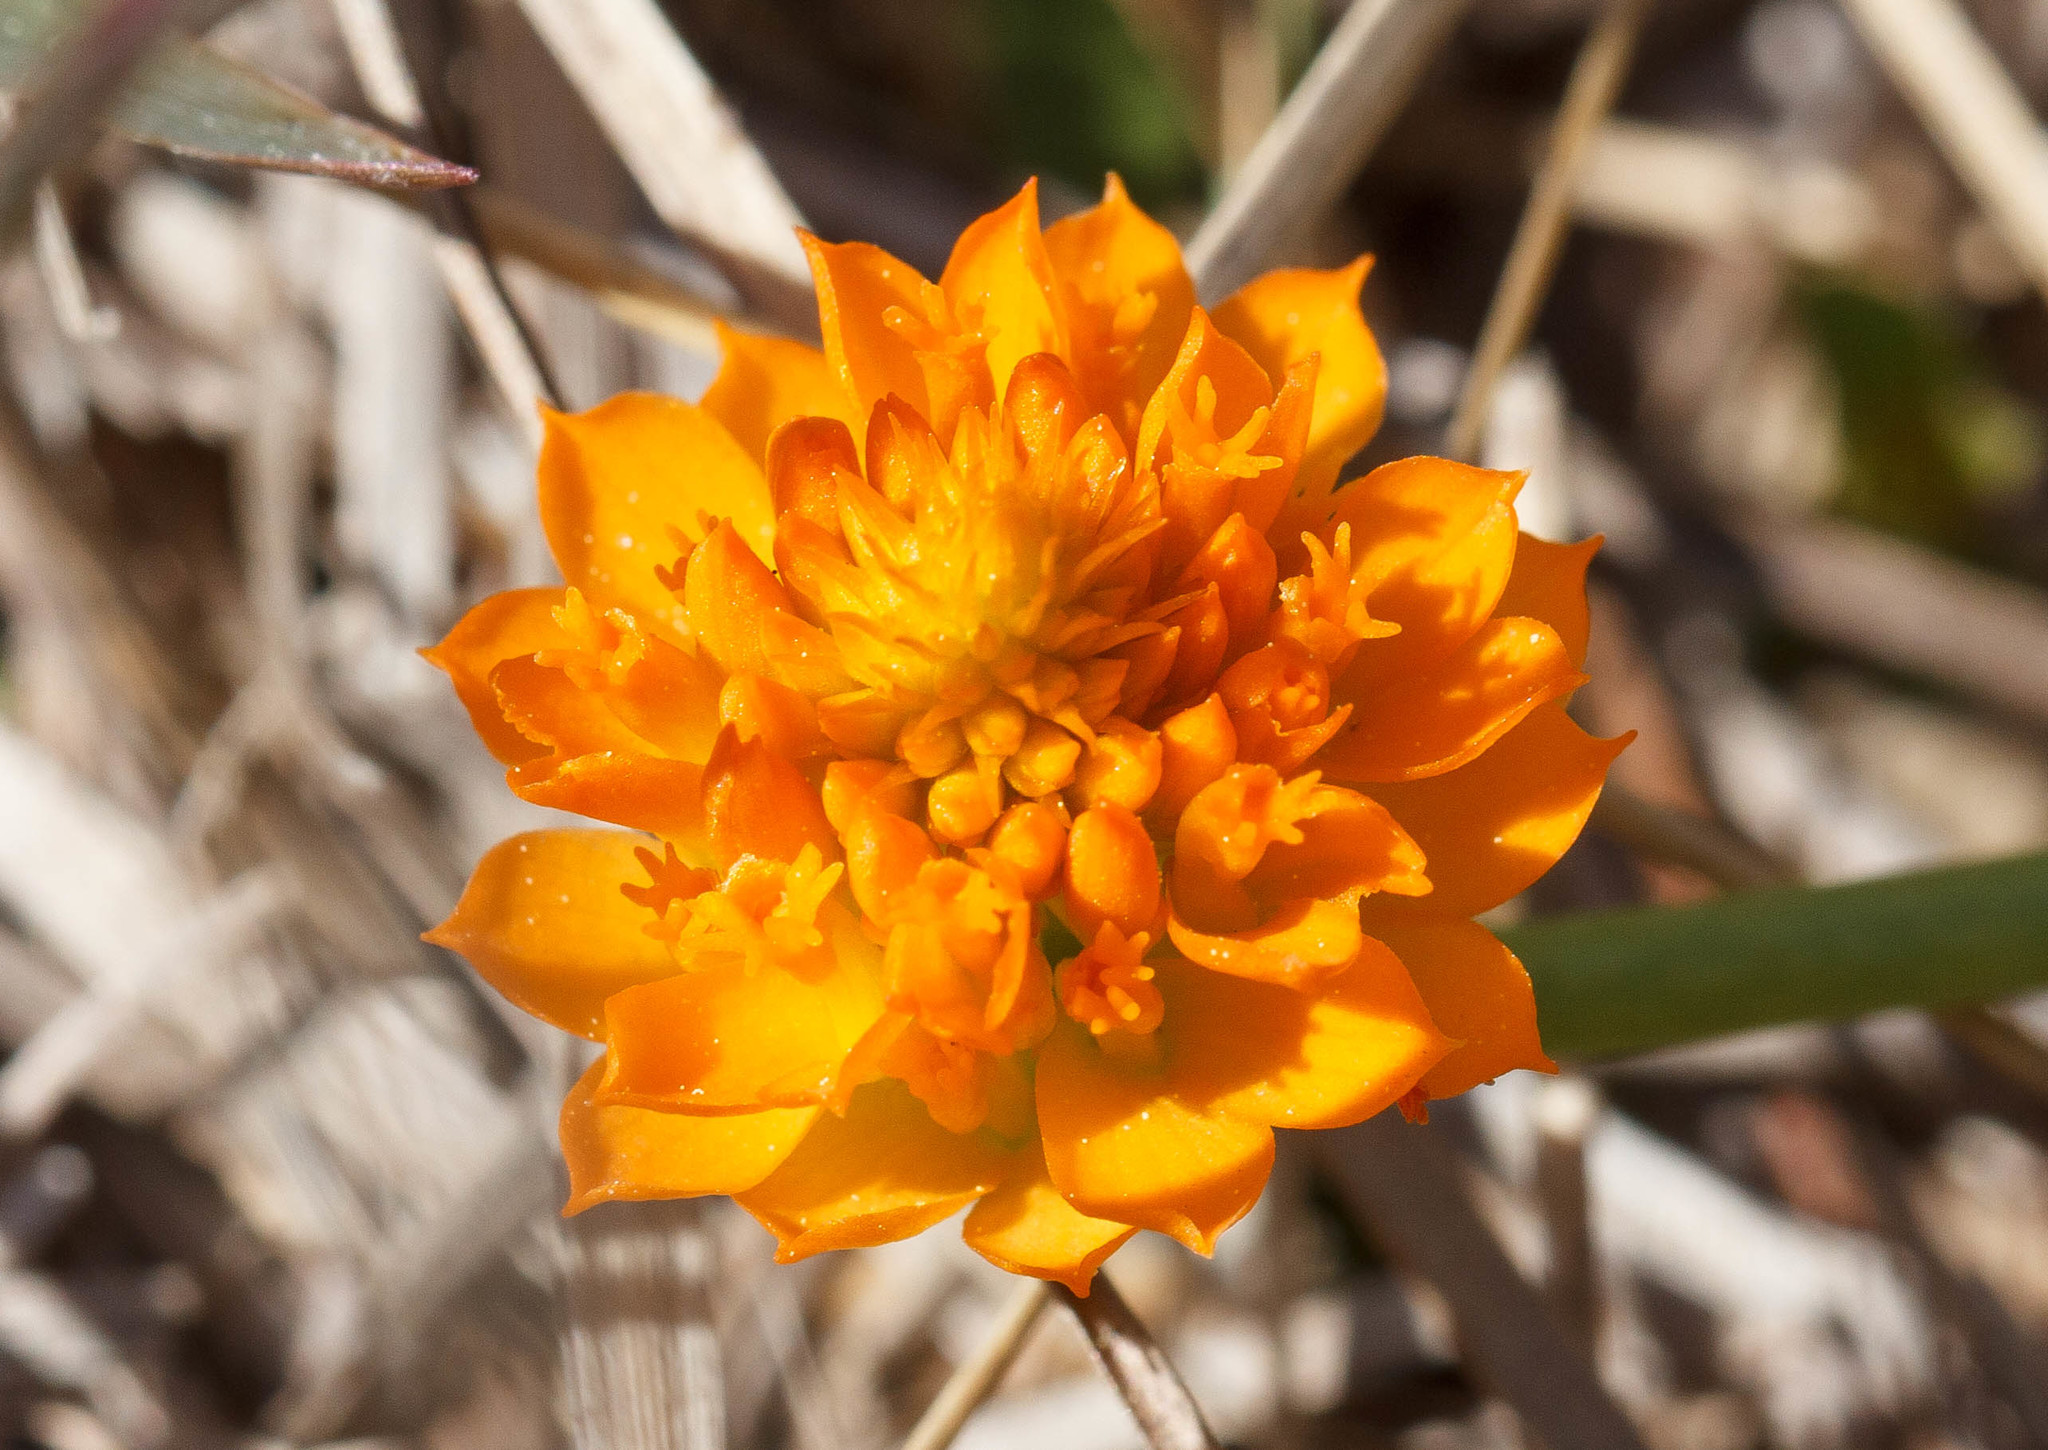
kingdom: Plantae
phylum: Tracheophyta
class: Magnoliopsida
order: Fabales
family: Polygalaceae
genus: Polygala
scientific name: Polygala lutea
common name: Orange milkwort
